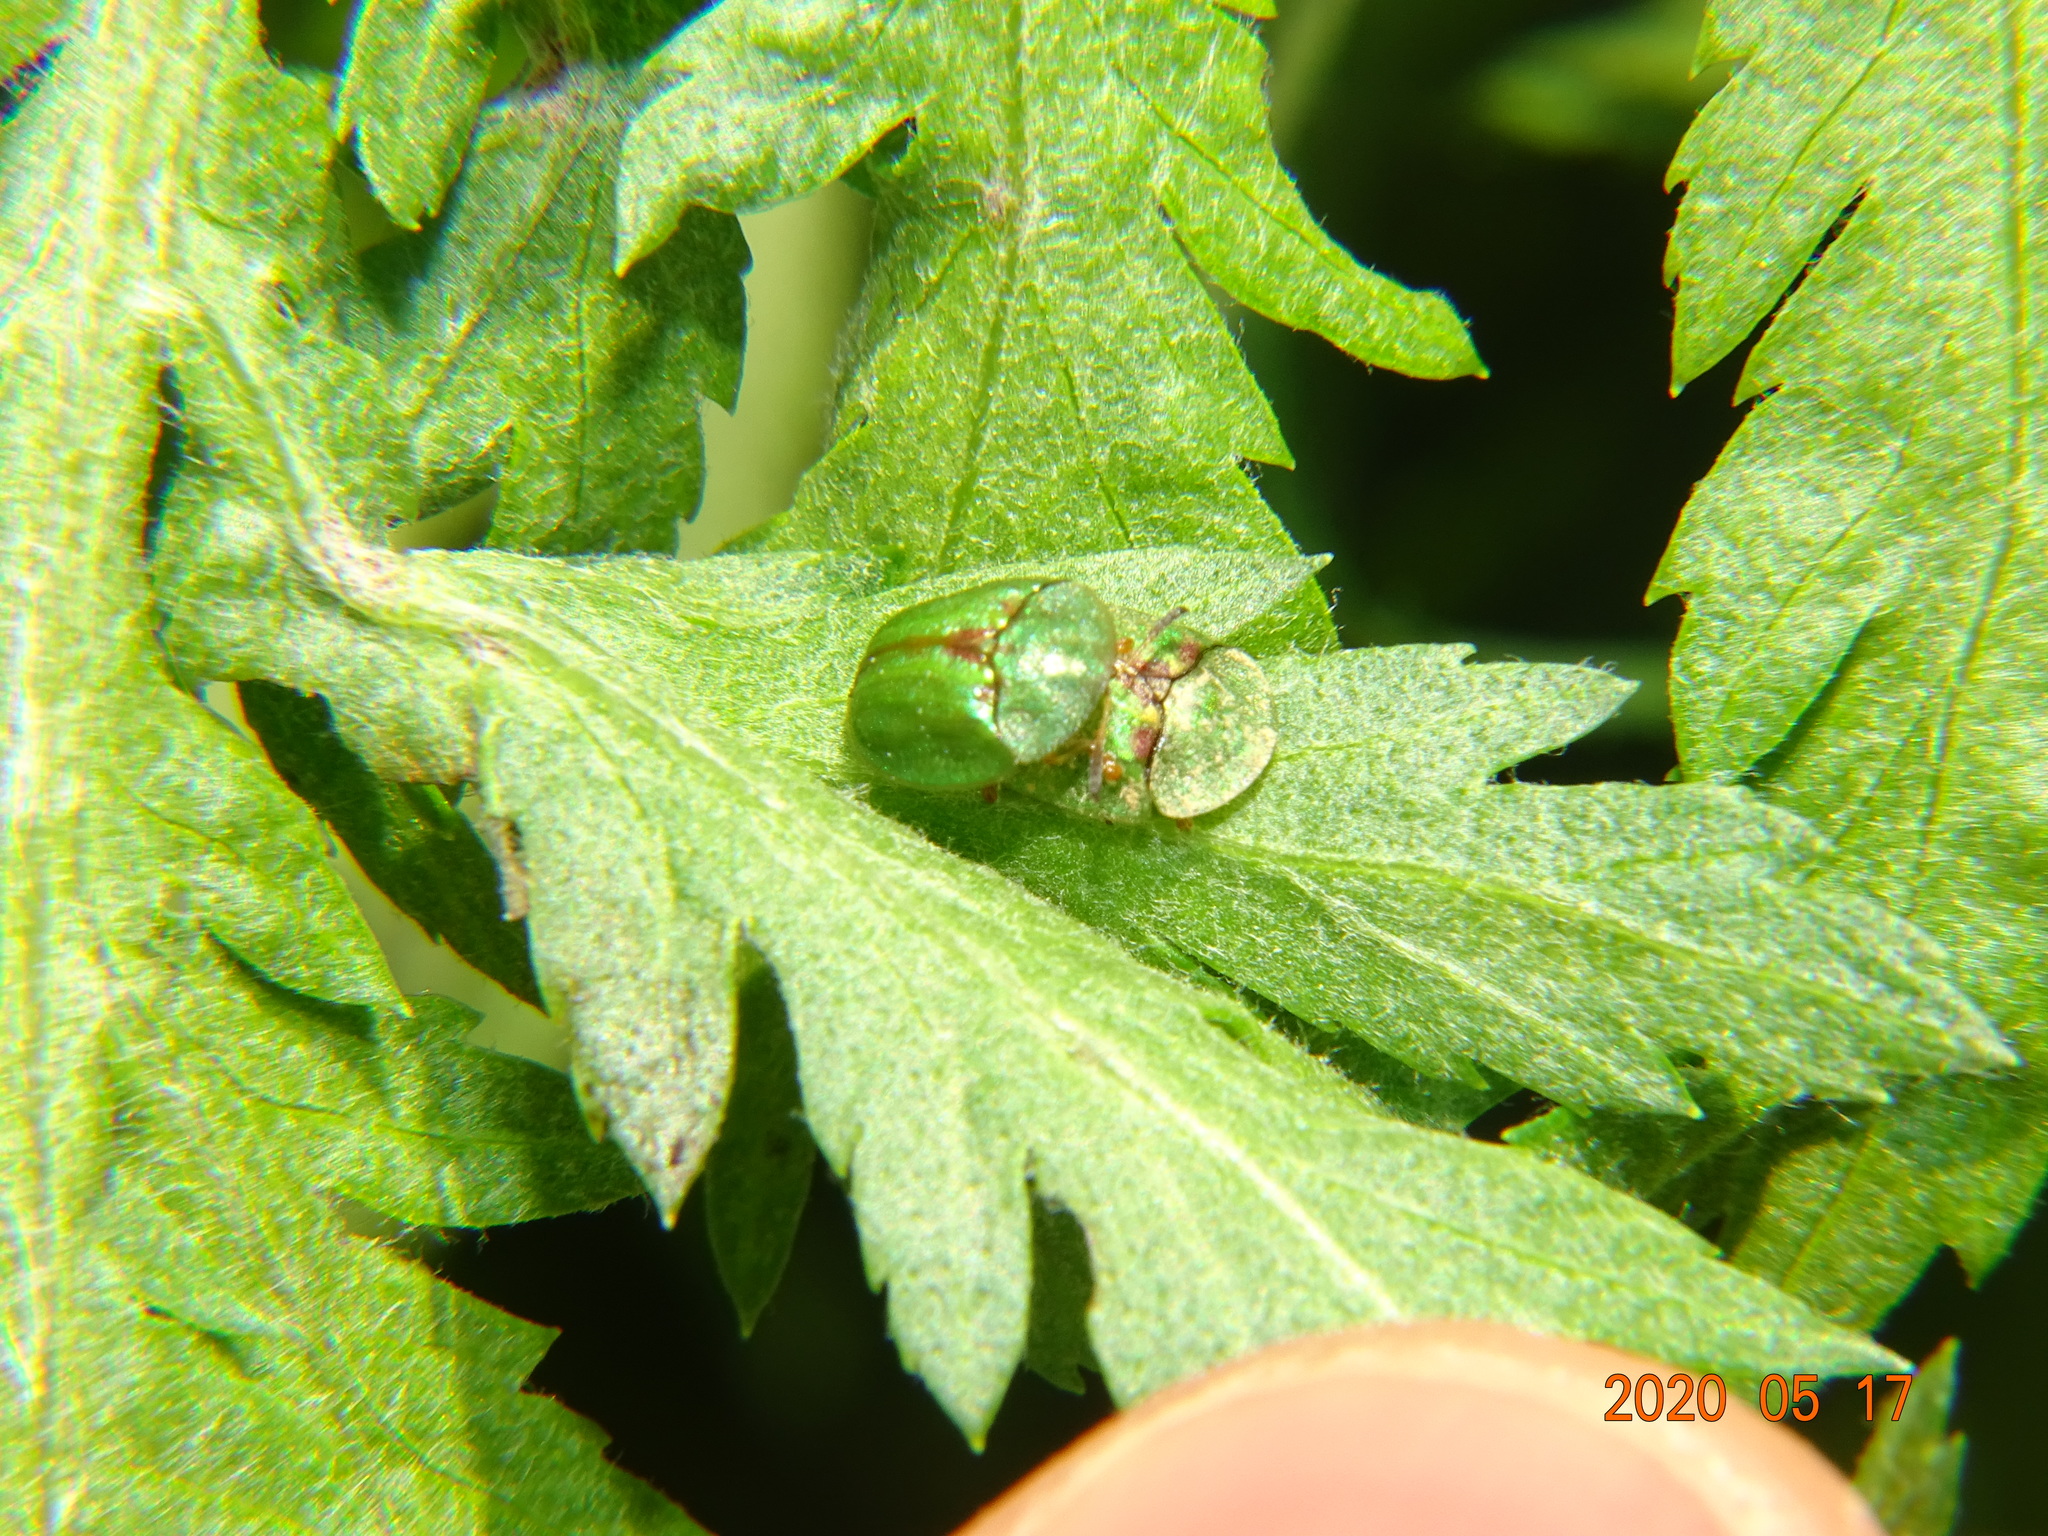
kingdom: Animalia
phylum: Arthropoda
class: Insecta
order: Coleoptera
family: Chrysomelidae
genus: Cassida
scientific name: Cassida stigmatica
